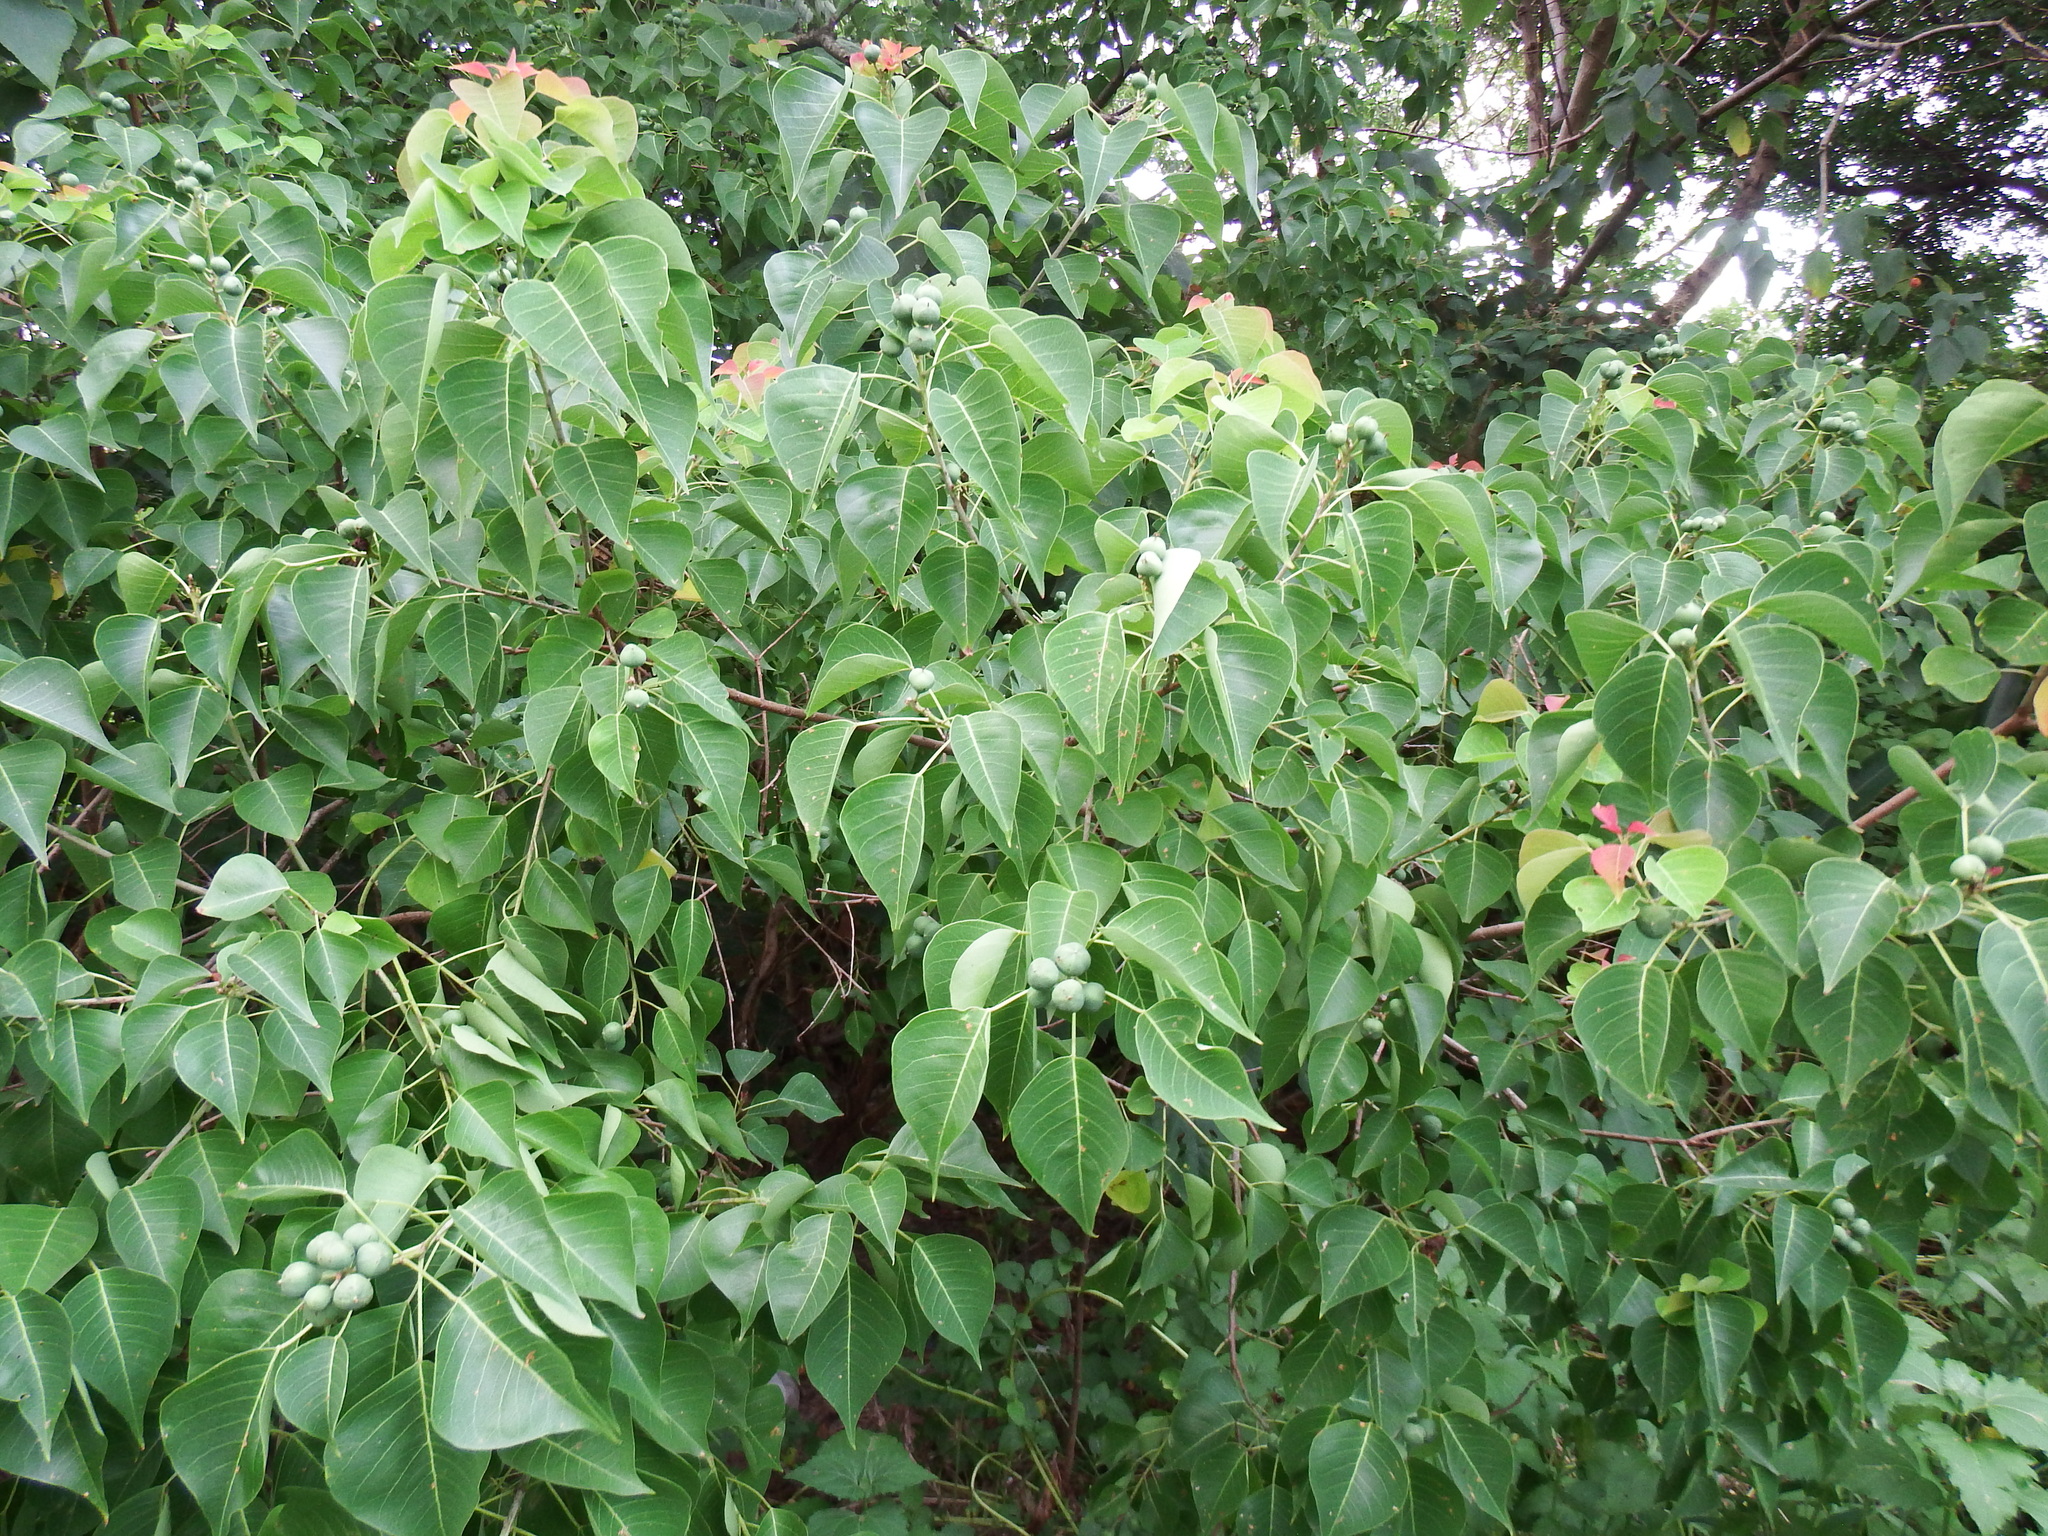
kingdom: Plantae
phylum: Tracheophyta
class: Magnoliopsida
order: Malpighiales
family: Euphorbiaceae
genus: Triadica
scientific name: Triadica sebifera
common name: Chinese tallow
